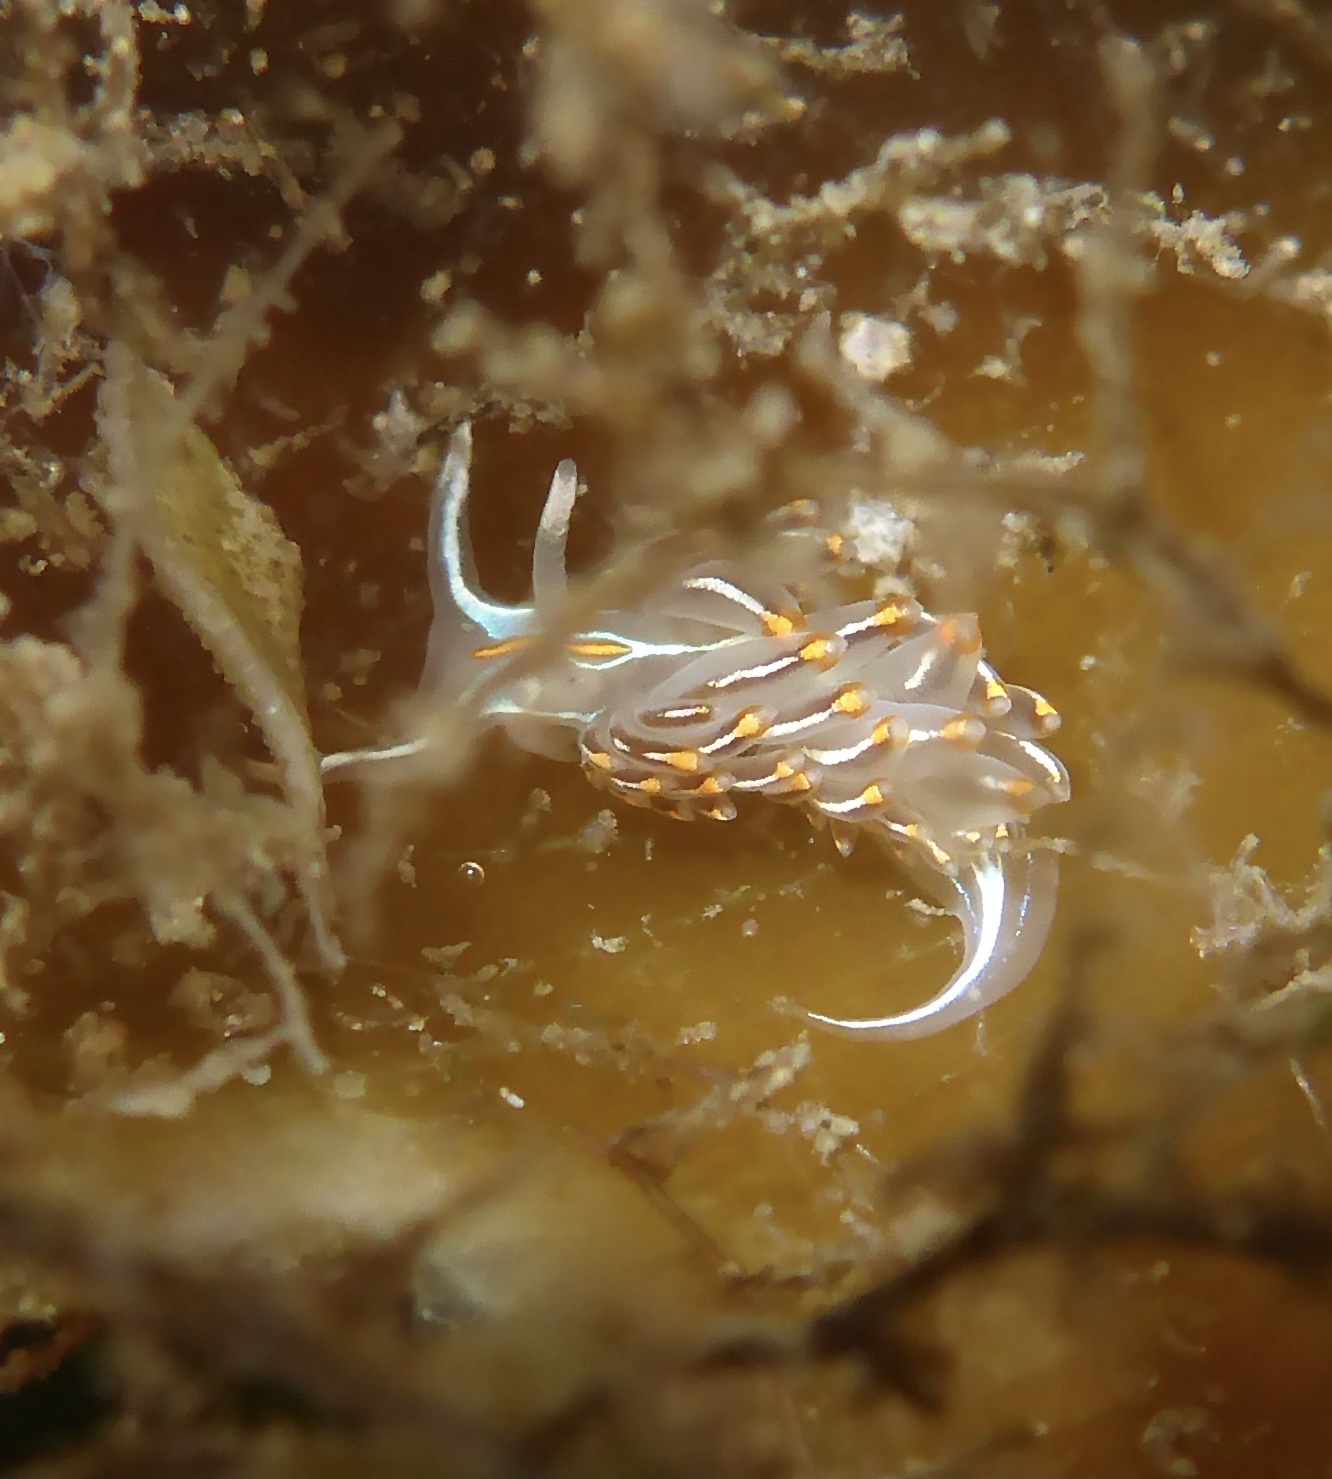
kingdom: Animalia
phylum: Mollusca
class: Gastropoda
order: Nudibranchia
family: Myrrhinidae
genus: Hermissenda
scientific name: Hermissenda crassicornis
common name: Hermissenda
